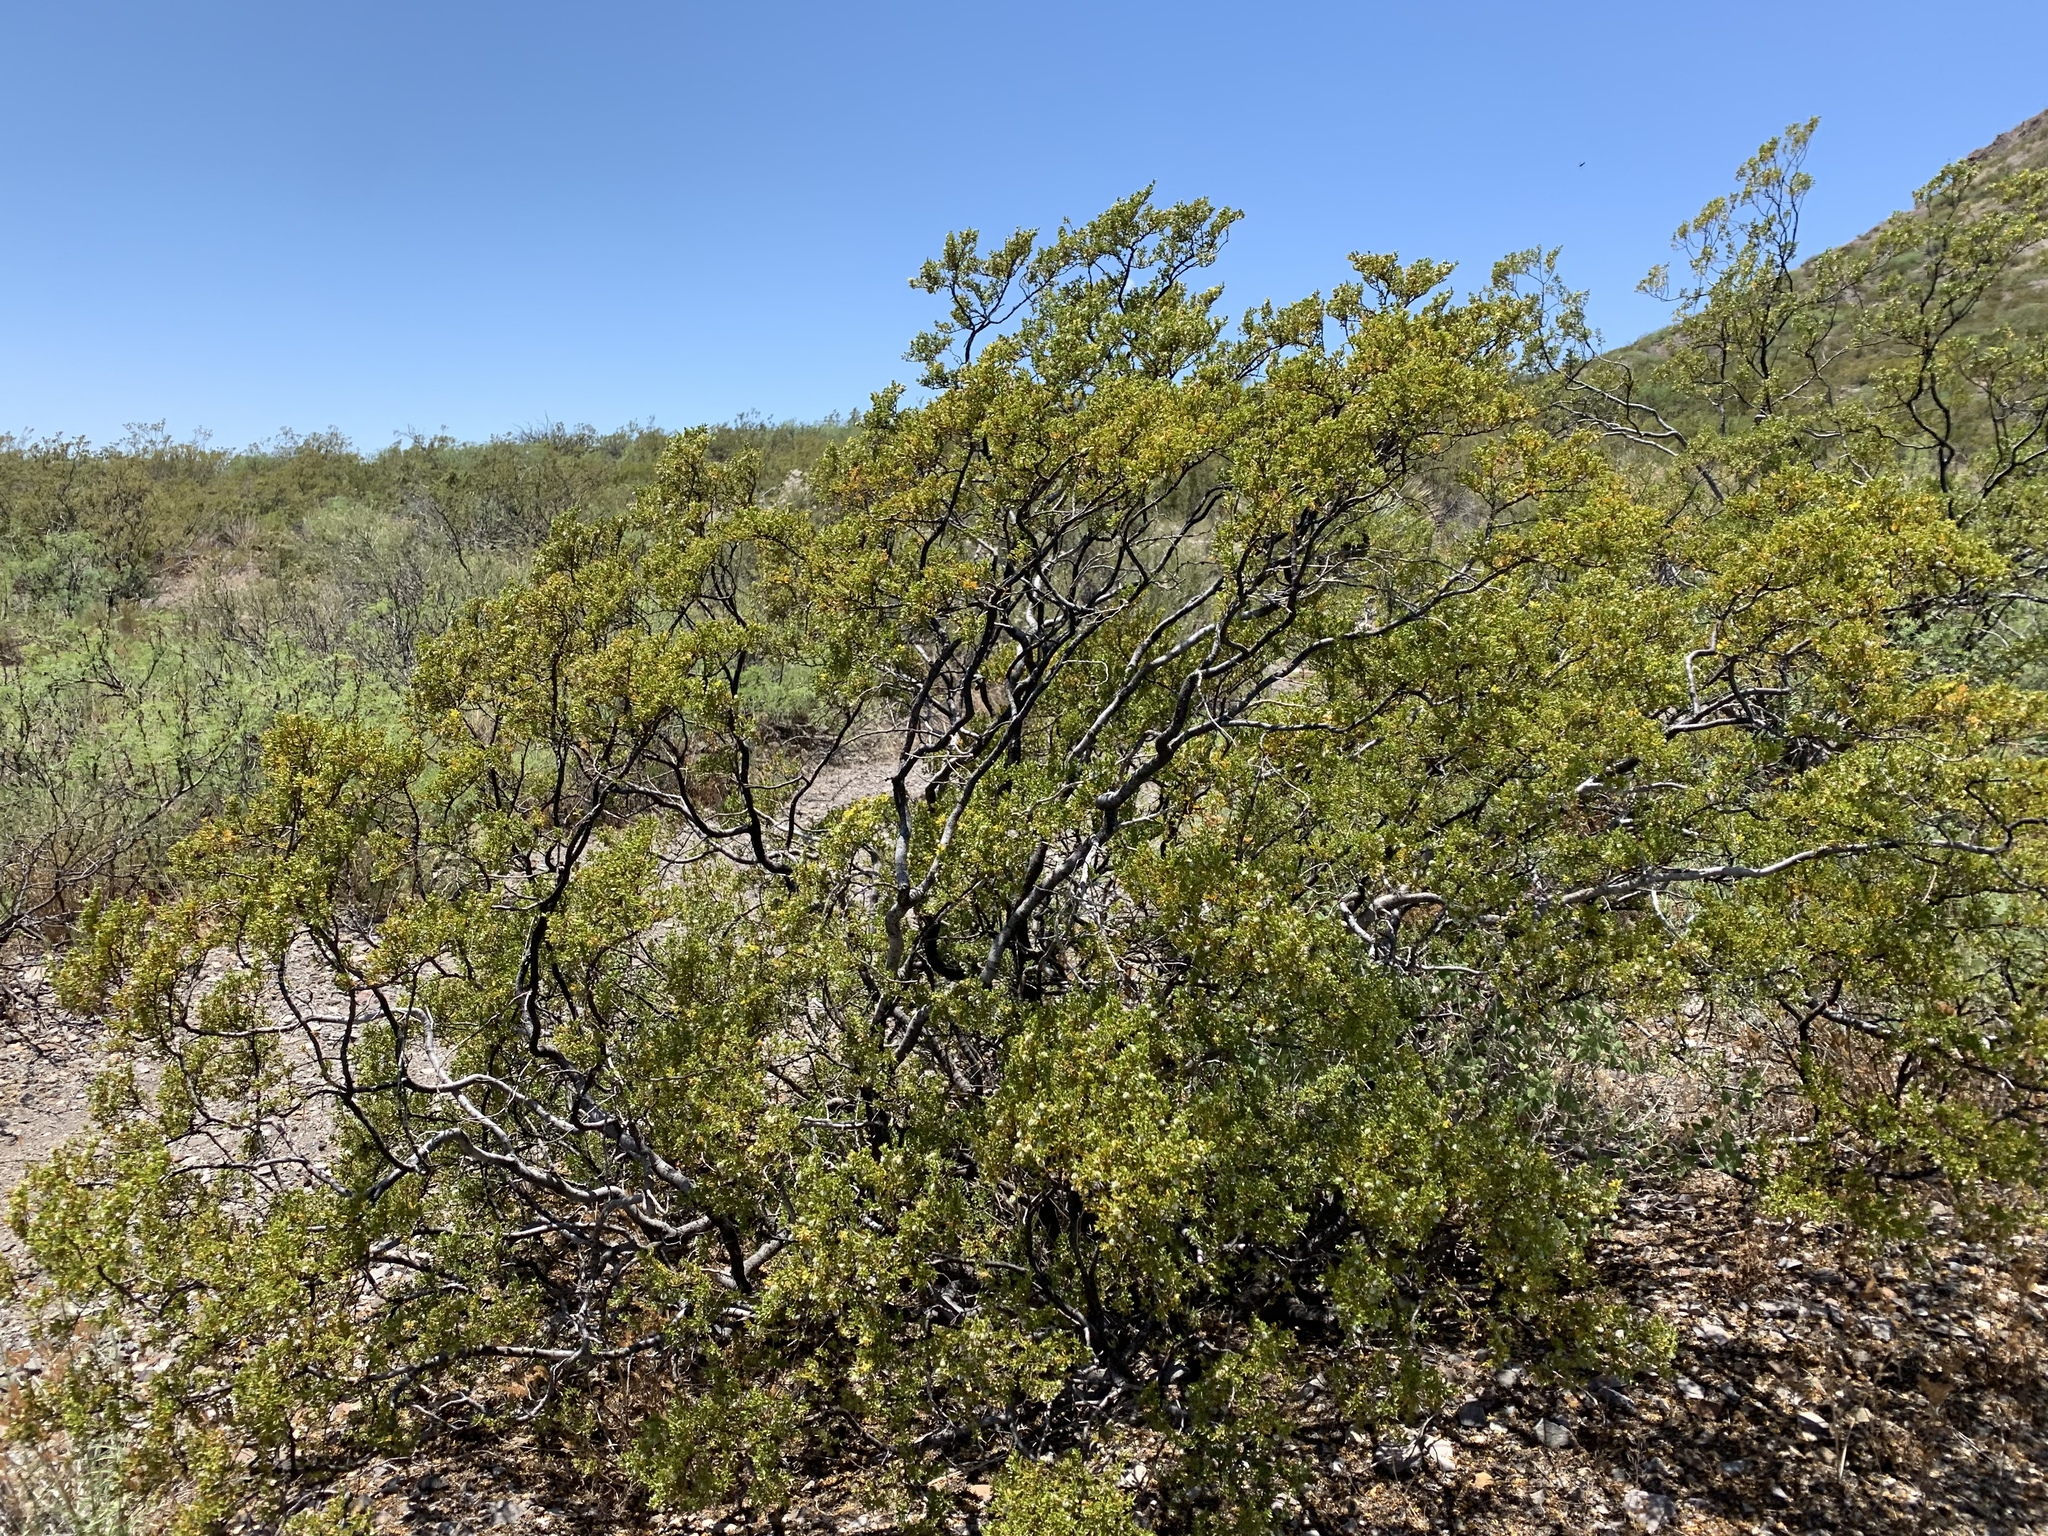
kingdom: Plantae
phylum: Tracheophyta
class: Magnoliopsida
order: Zygophyllales
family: Zygophyllaceae
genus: Larrea
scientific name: Larrea tridentata
